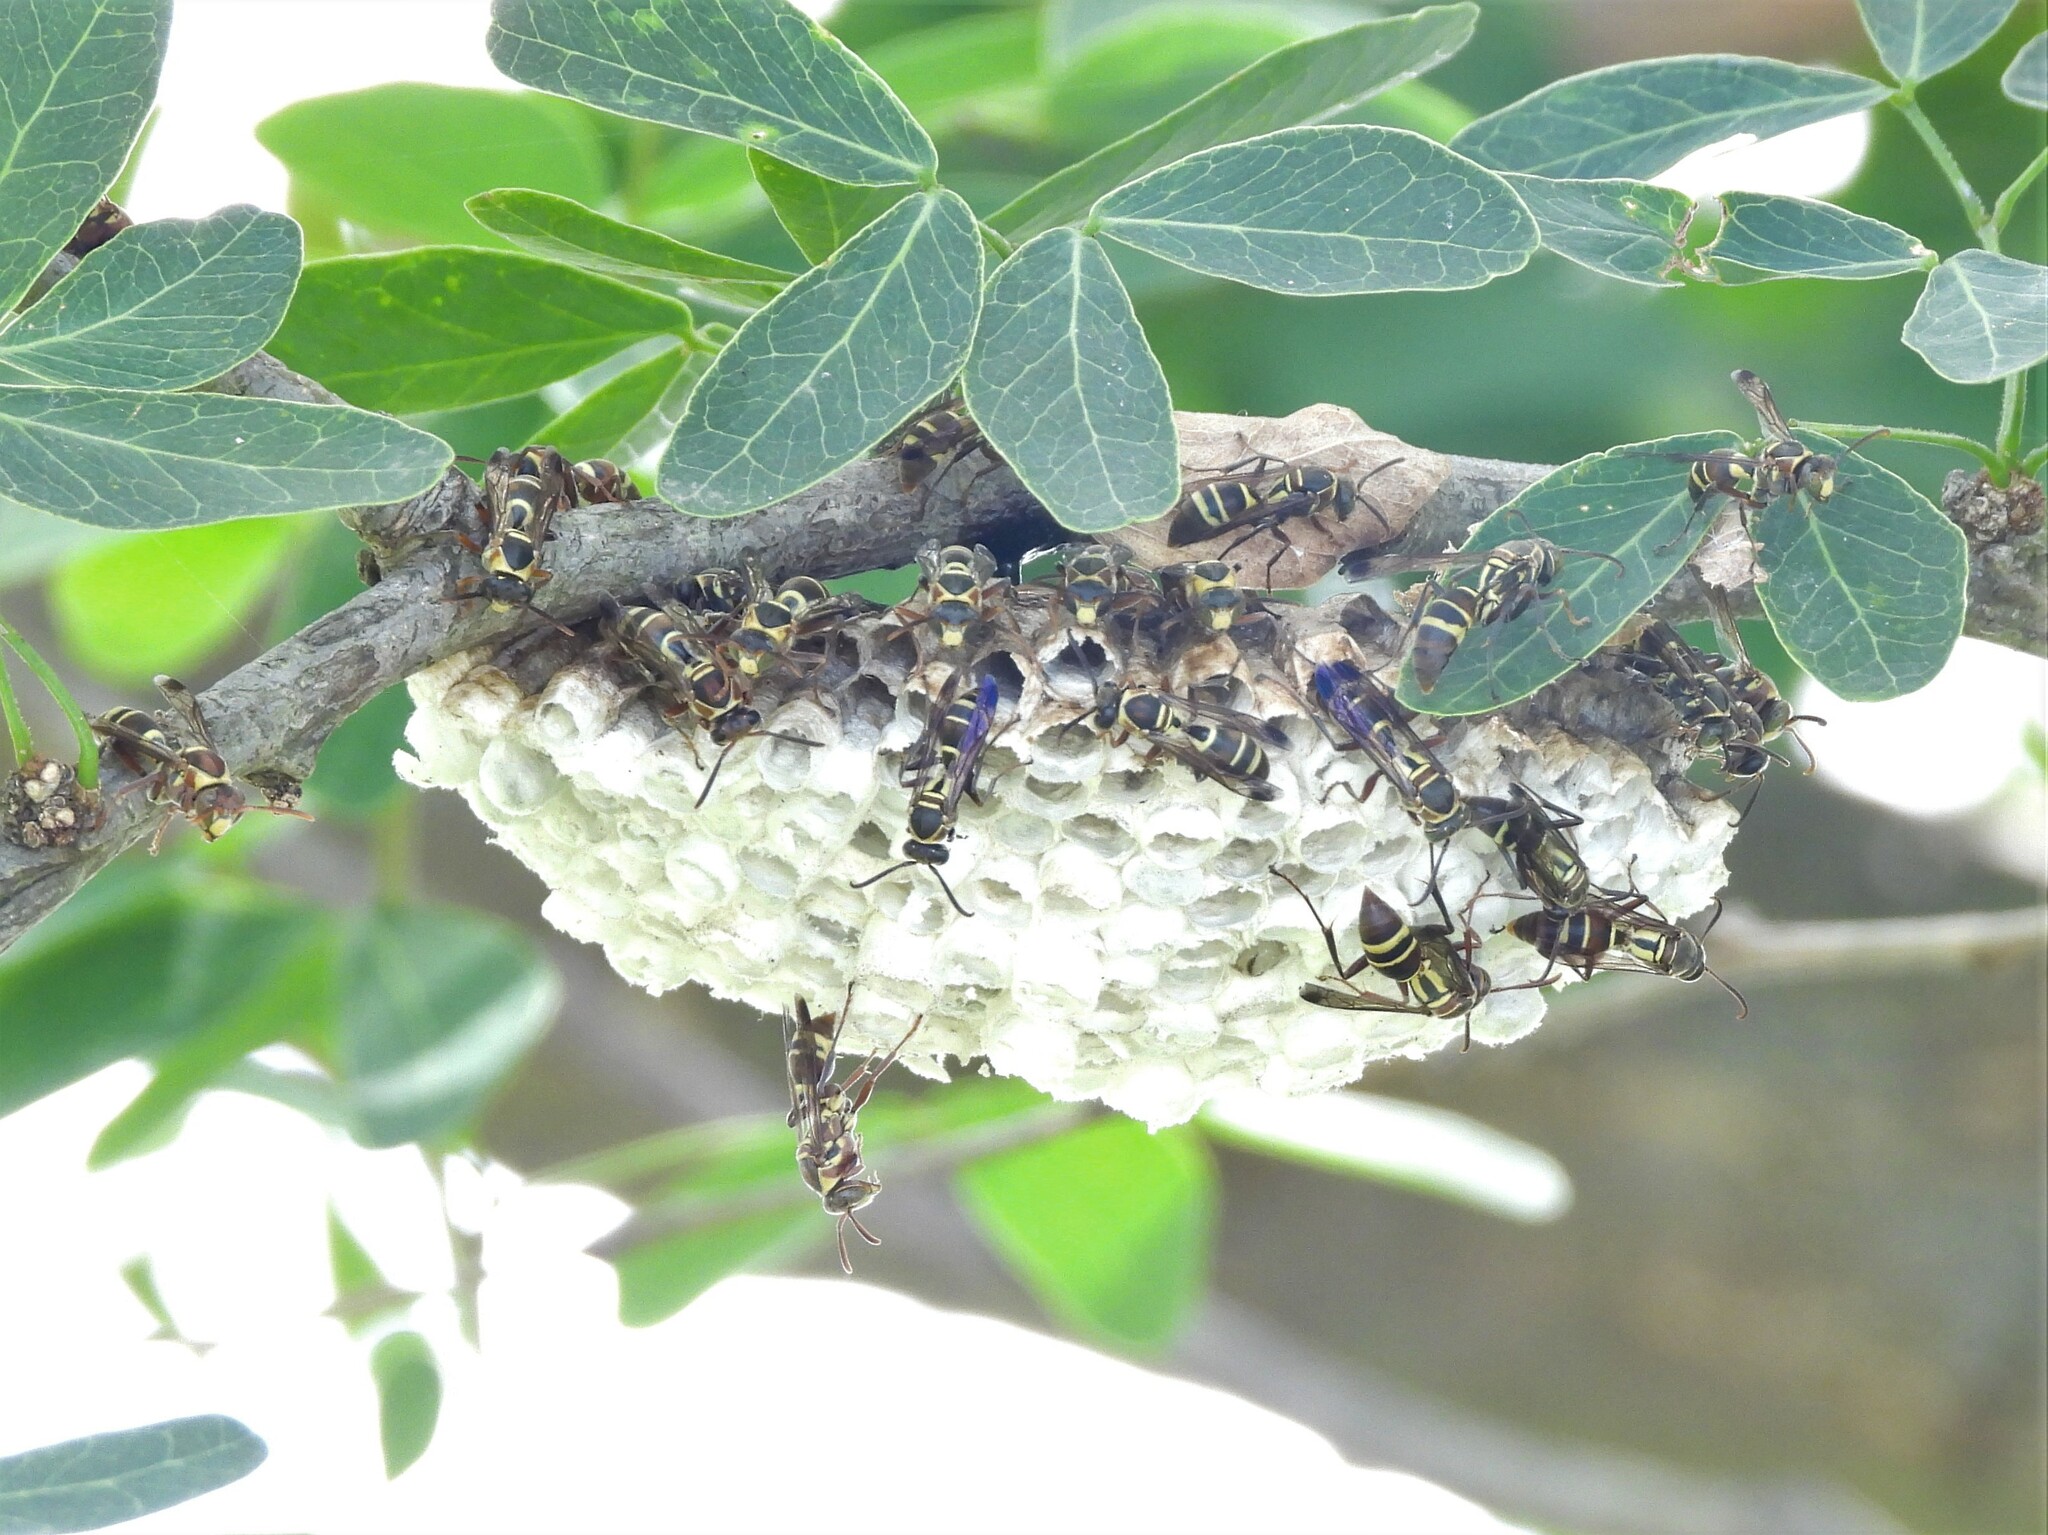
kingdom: Animalia
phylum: Arthropoda
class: Insecta
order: Hymenoptera
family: Eumenidae
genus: Polistes
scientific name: Polistes stigma
